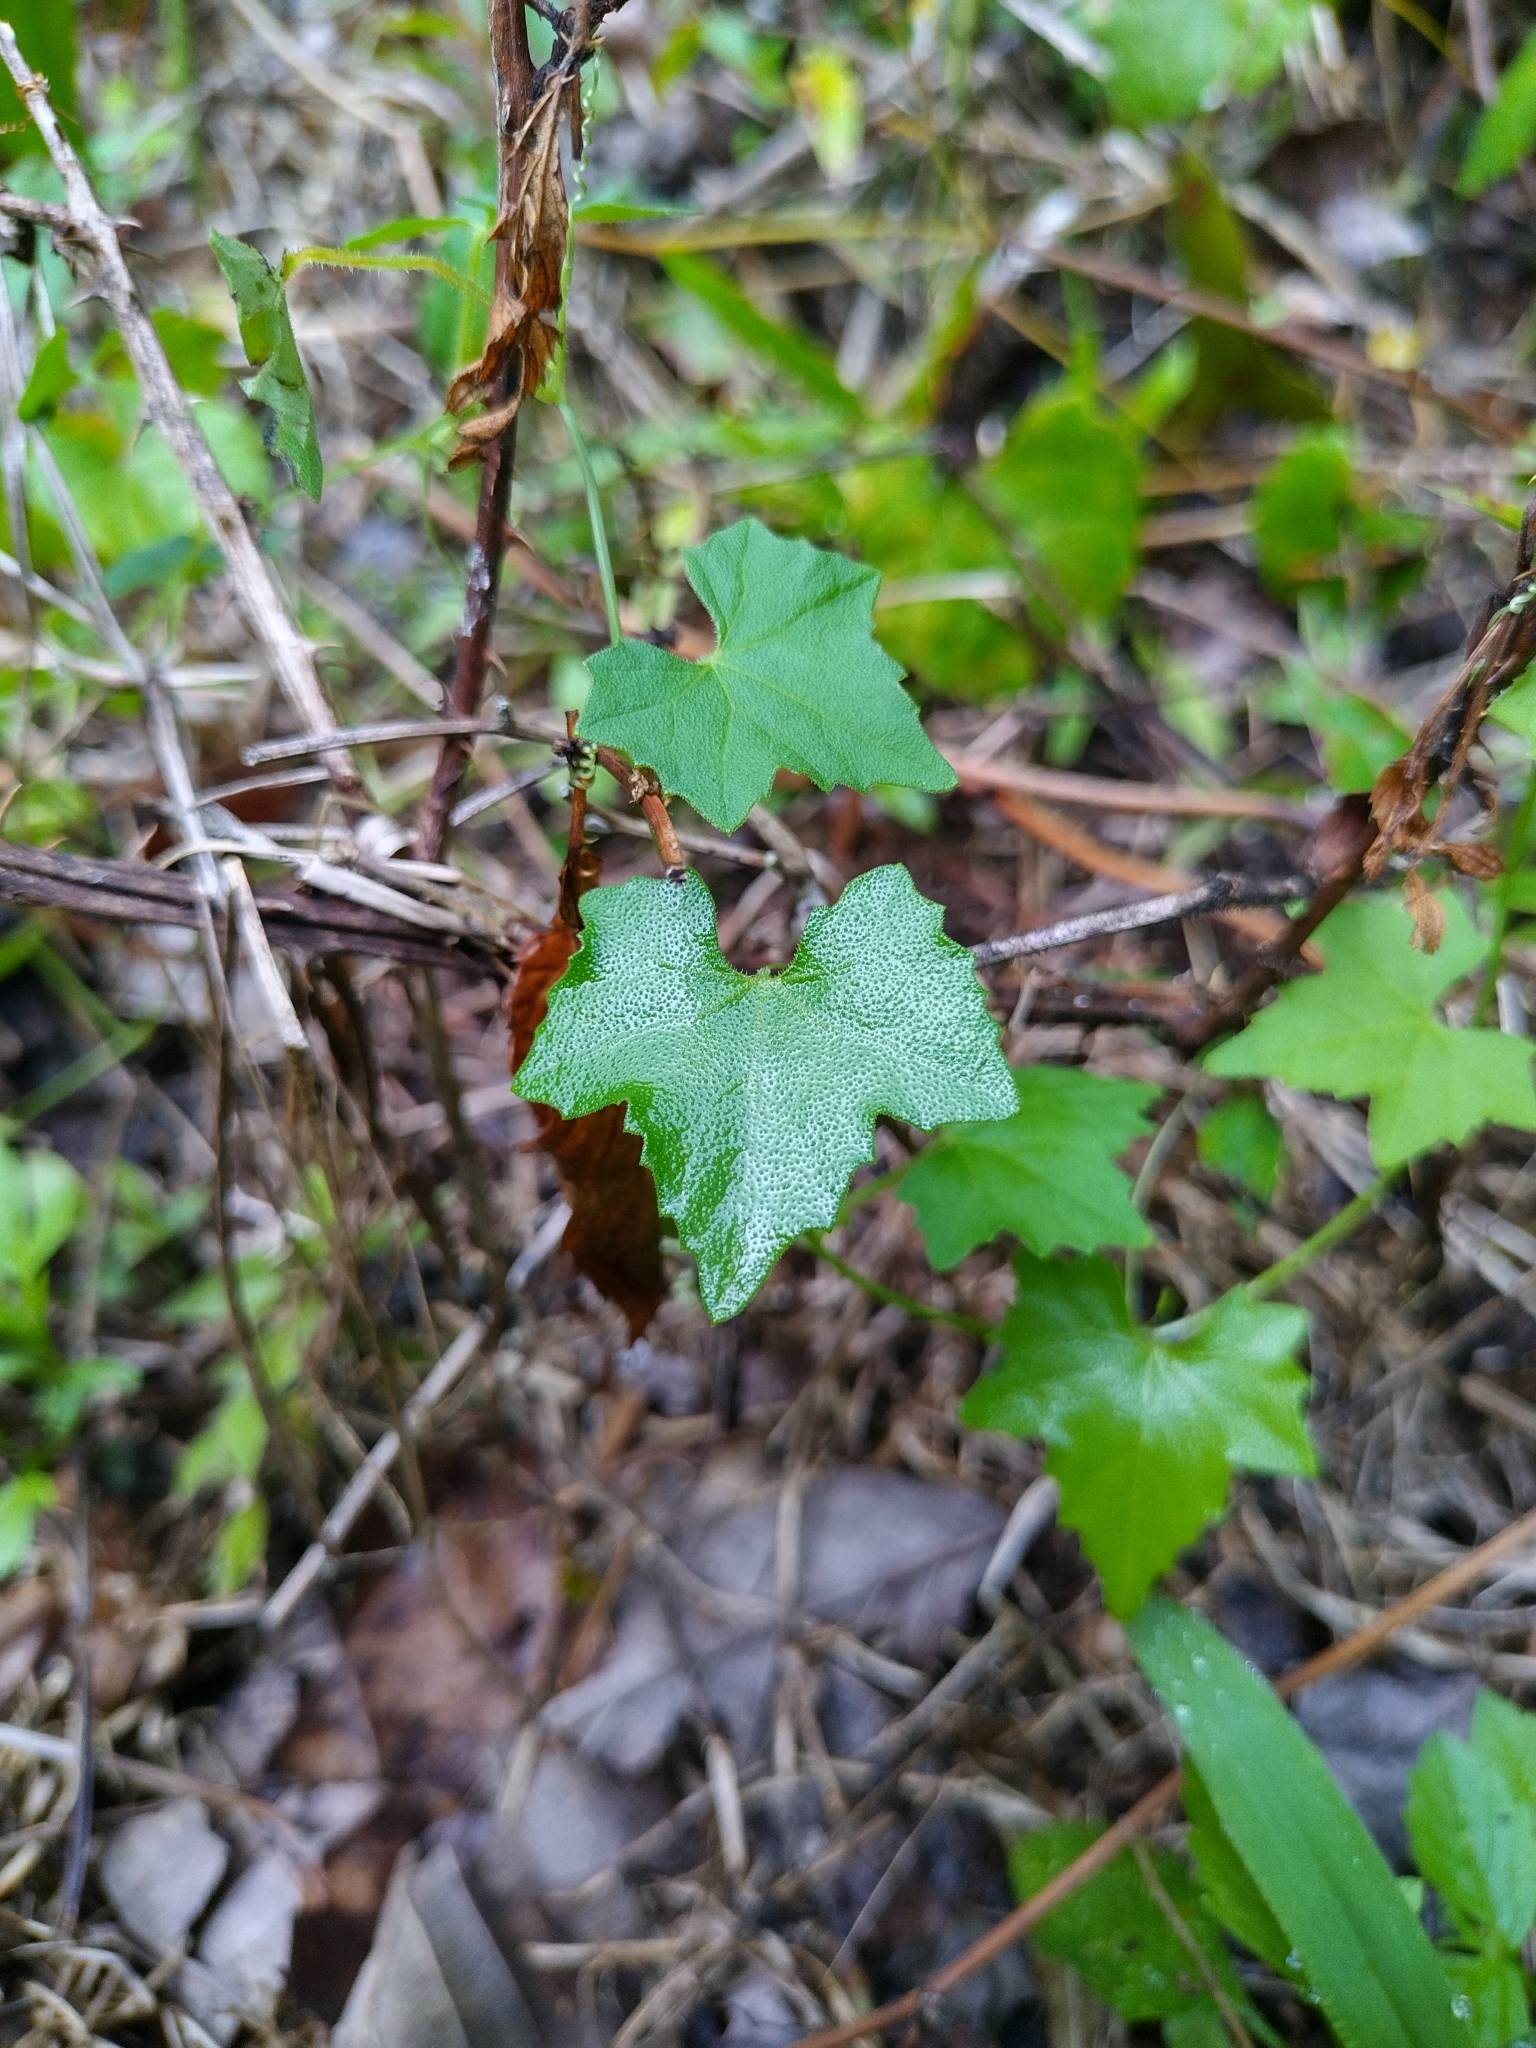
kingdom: Plantae
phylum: Tracheophyta
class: Magnoliopsida
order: Cucurbitales
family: Cucurbitaceae
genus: Melothria
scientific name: Melothria pendula
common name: Creeping-cucumber
